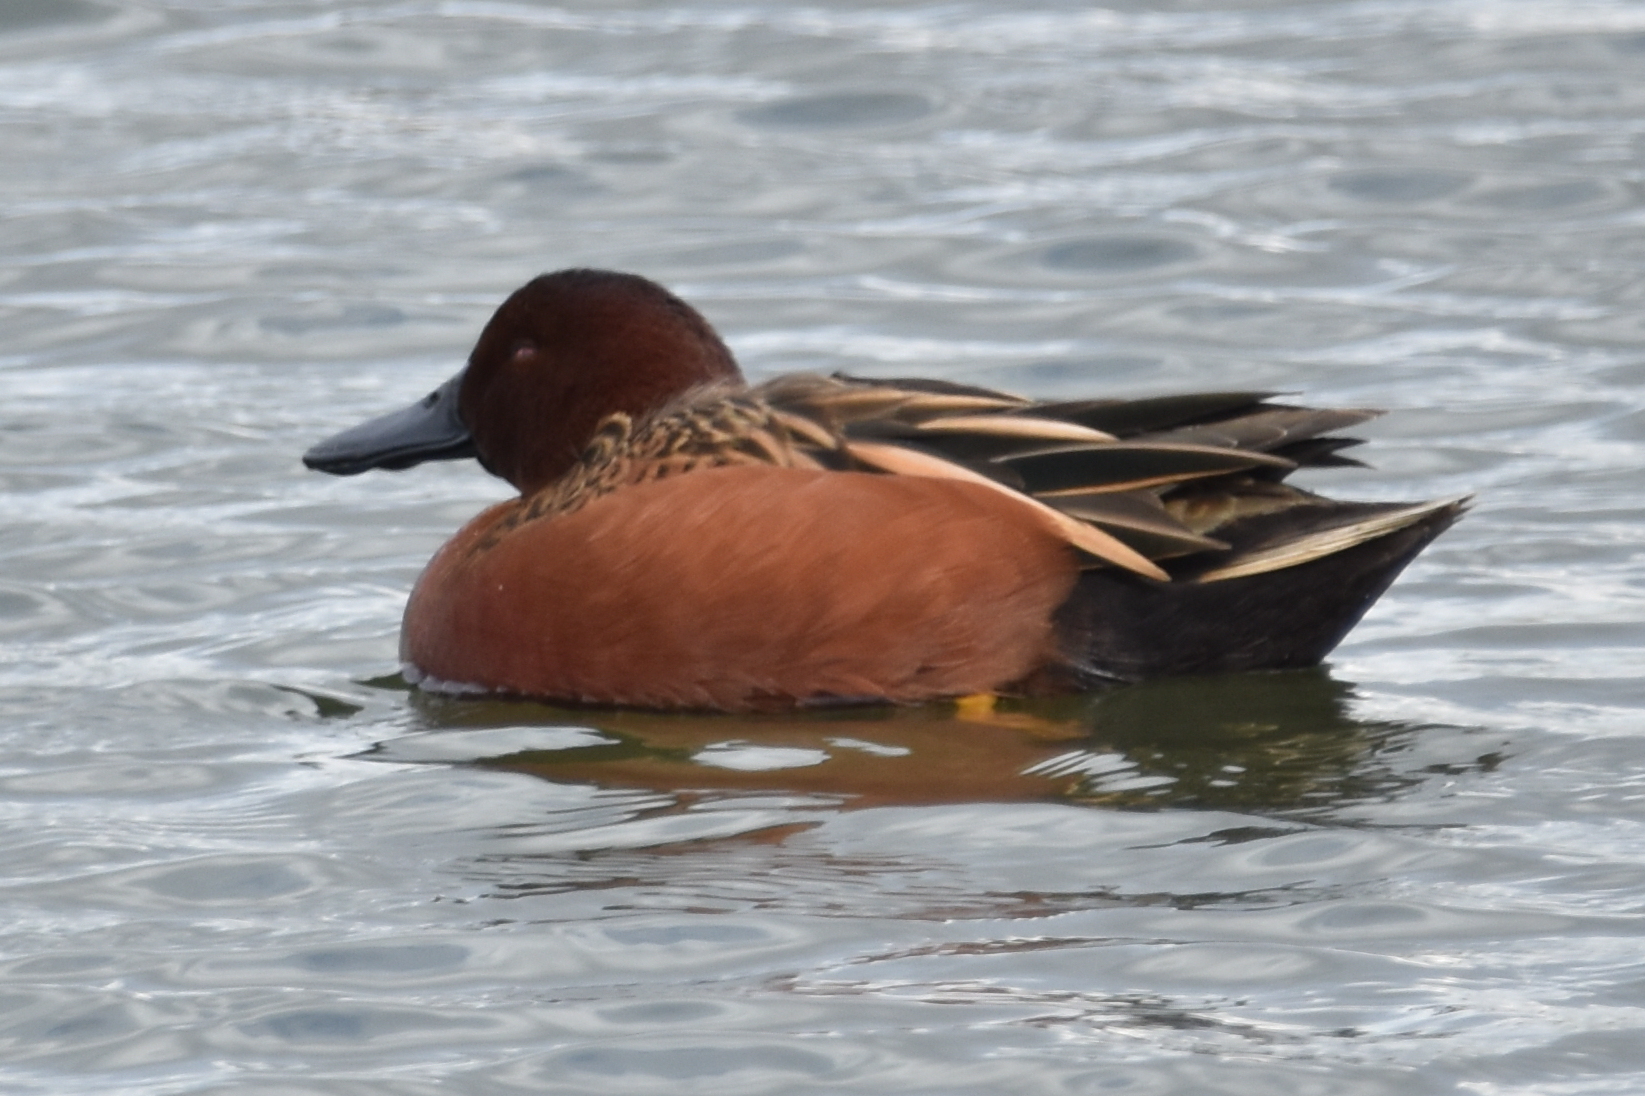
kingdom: Animalia
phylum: Chordata
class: Aves
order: Anseriformes
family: Anatidae
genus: Spatula
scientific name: Spatula cyanoptera
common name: Cinnamon teal
